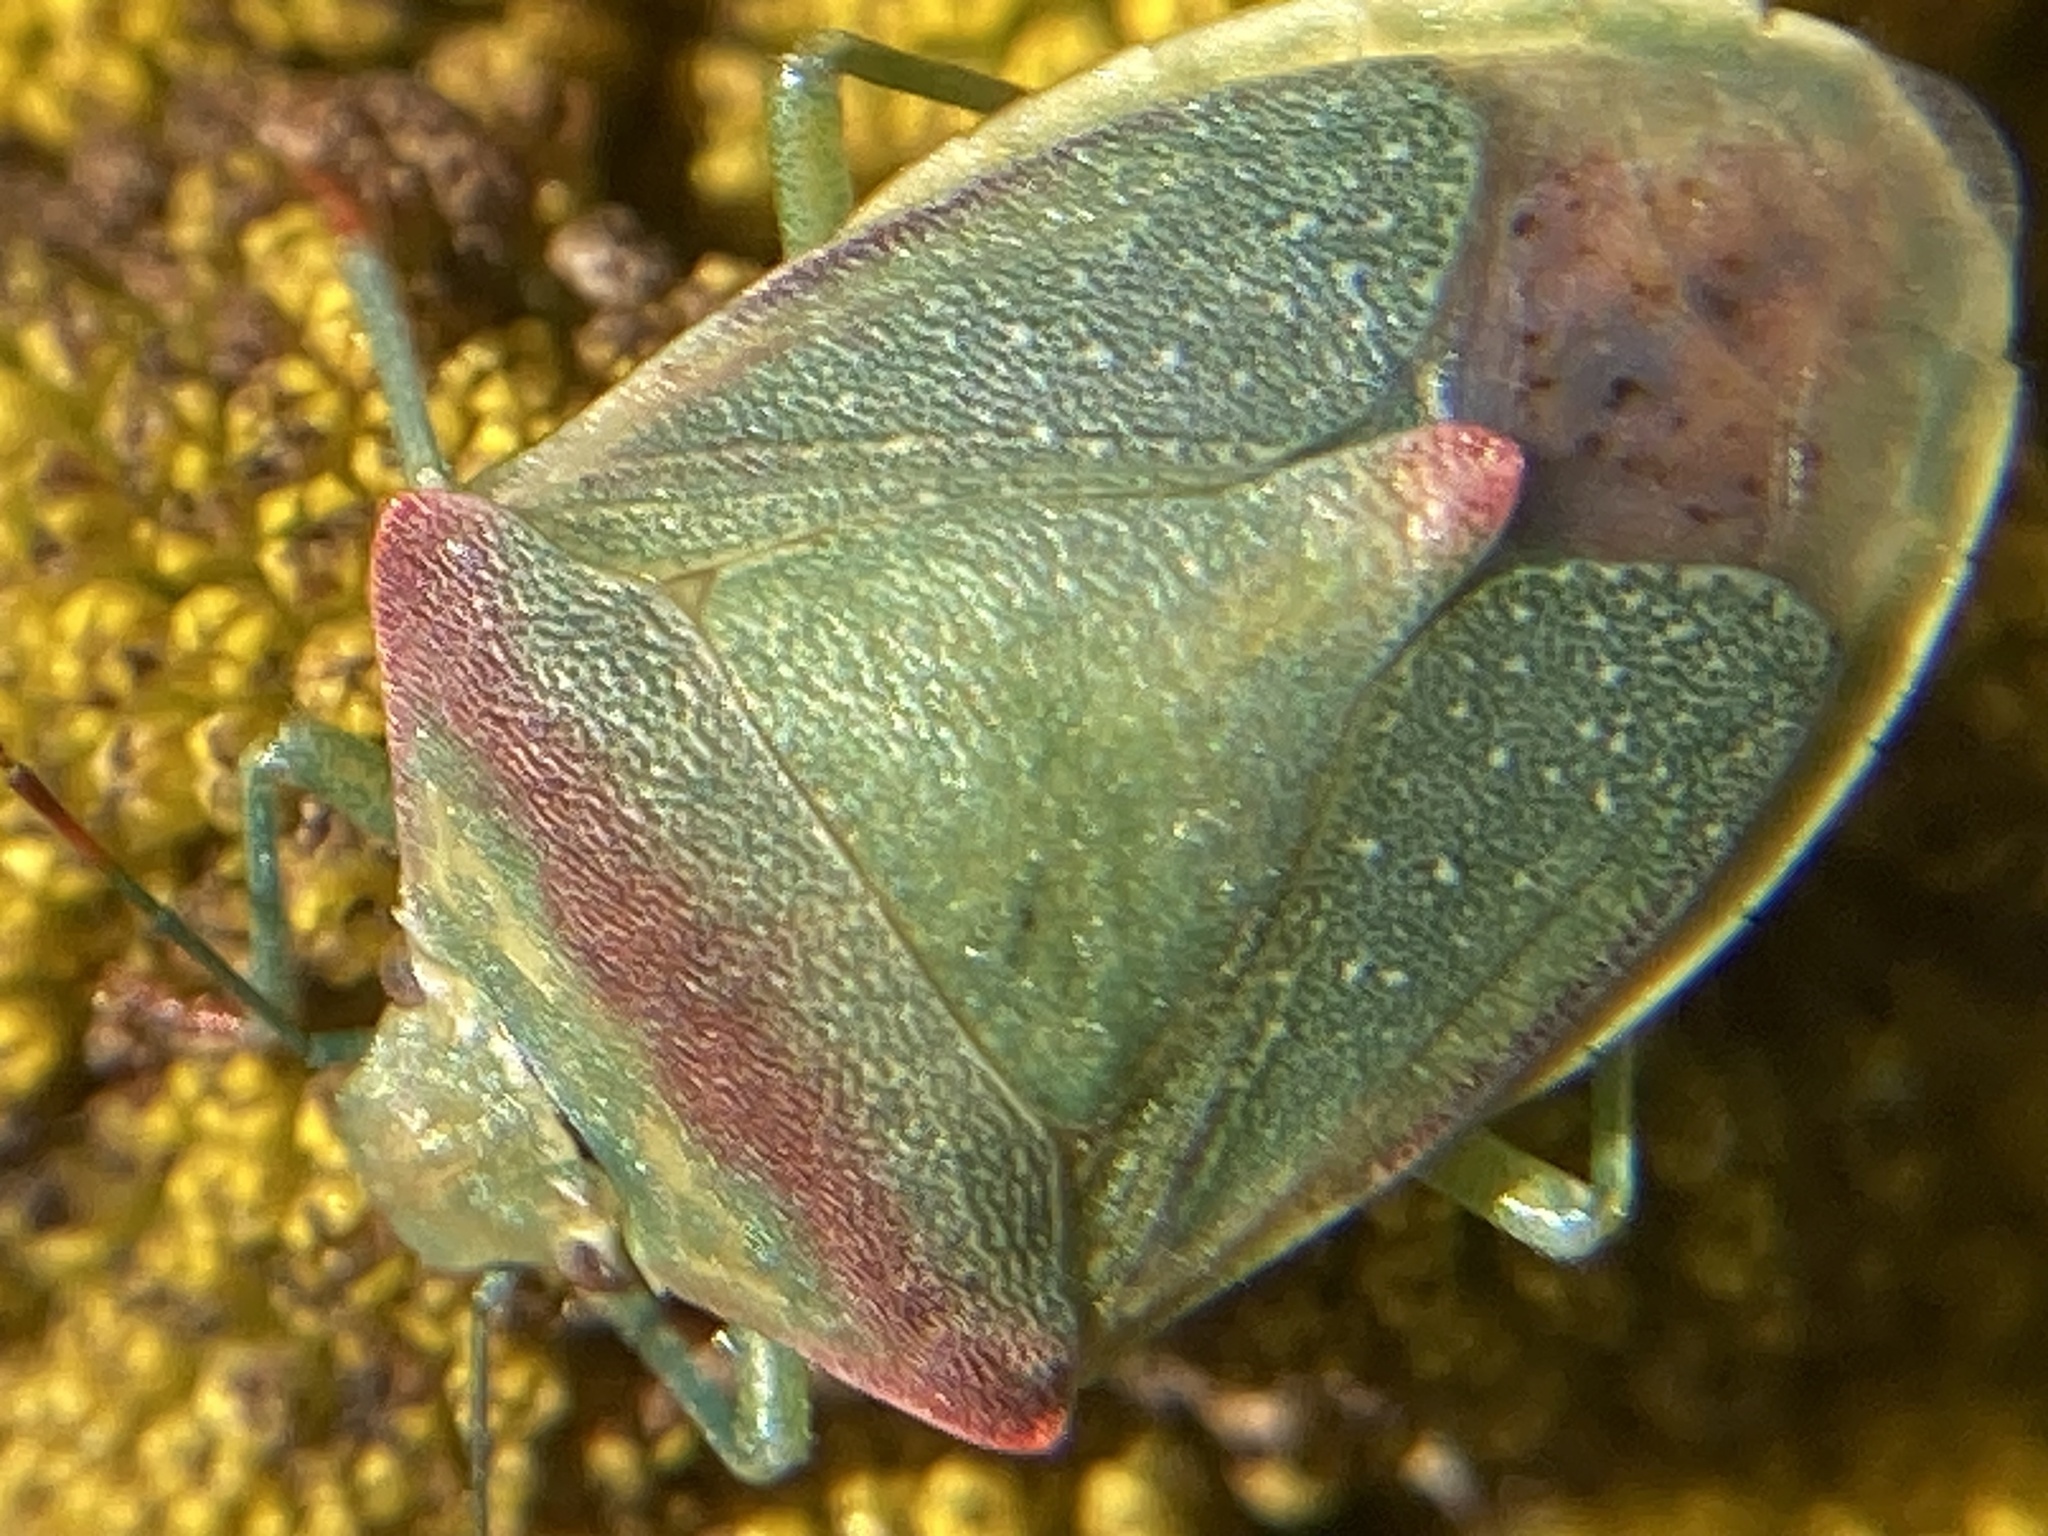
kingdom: Animalia
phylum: Arthropoda
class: Insecta
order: Hemiptera
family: Pentatomidae
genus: Thyanta
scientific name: Thyanta accerra
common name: Stink bug
